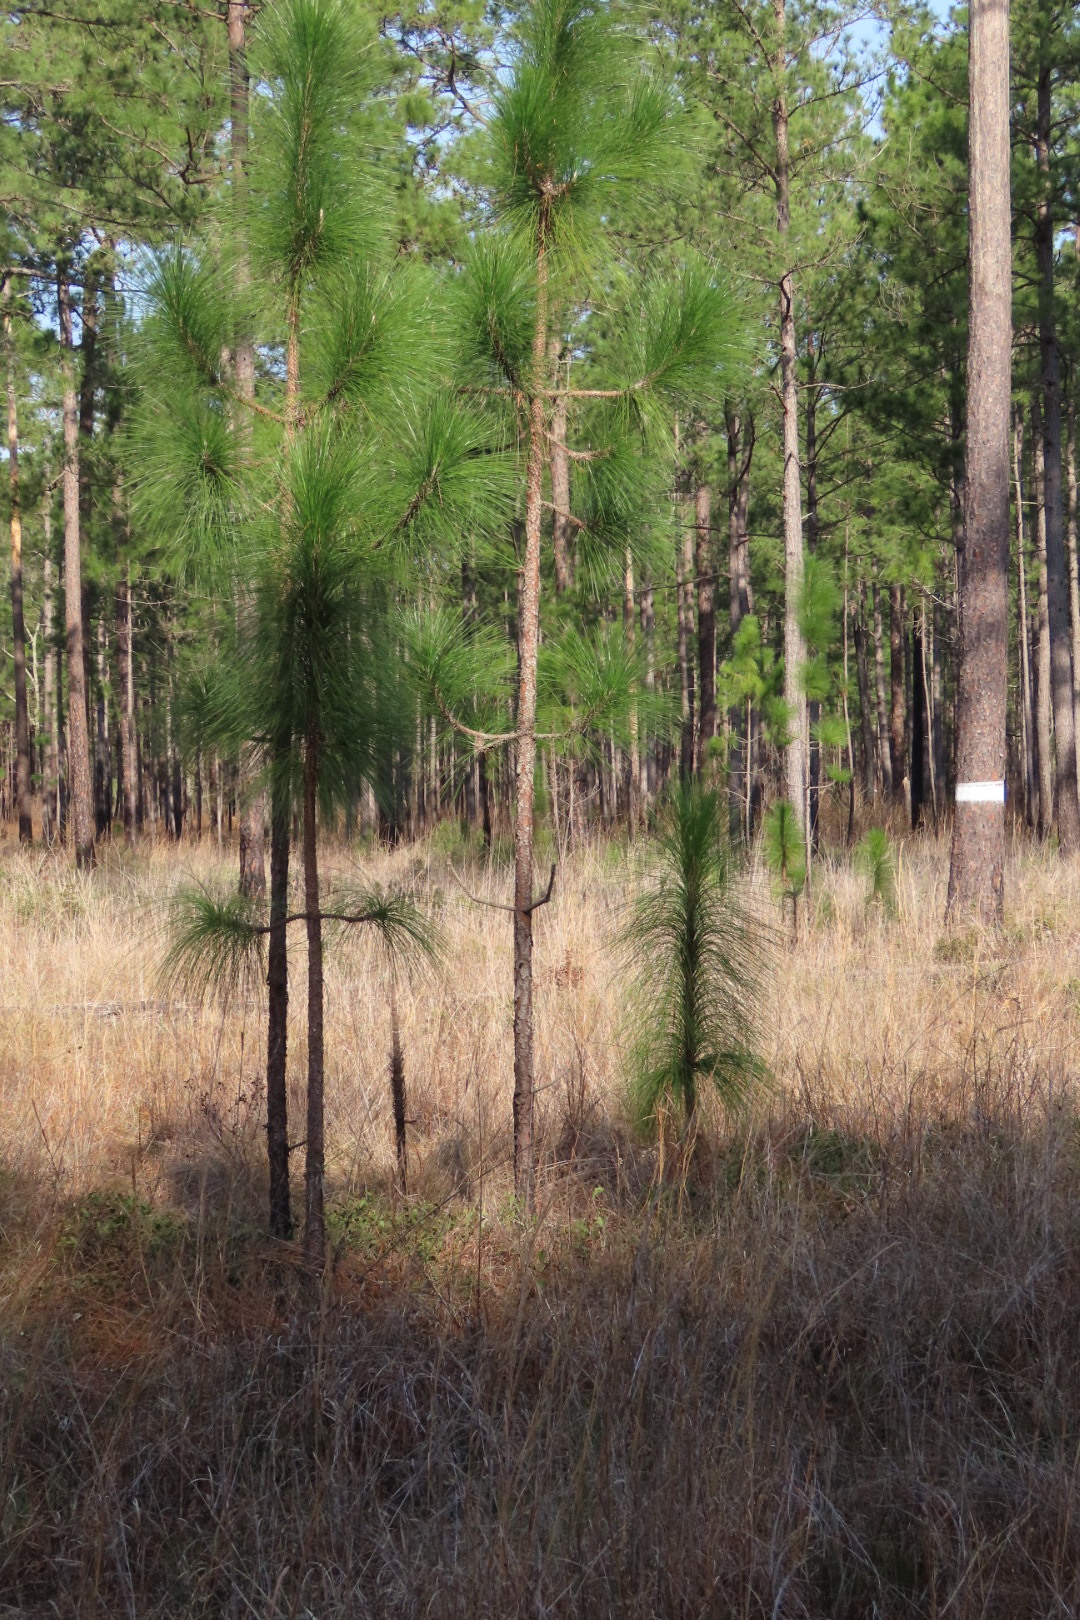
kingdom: Plantae
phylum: Tracheophyta
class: Pinopsida
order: Pinales
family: Pinaceae
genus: Pinus
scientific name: Pinus palustris
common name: Longleaf pine
